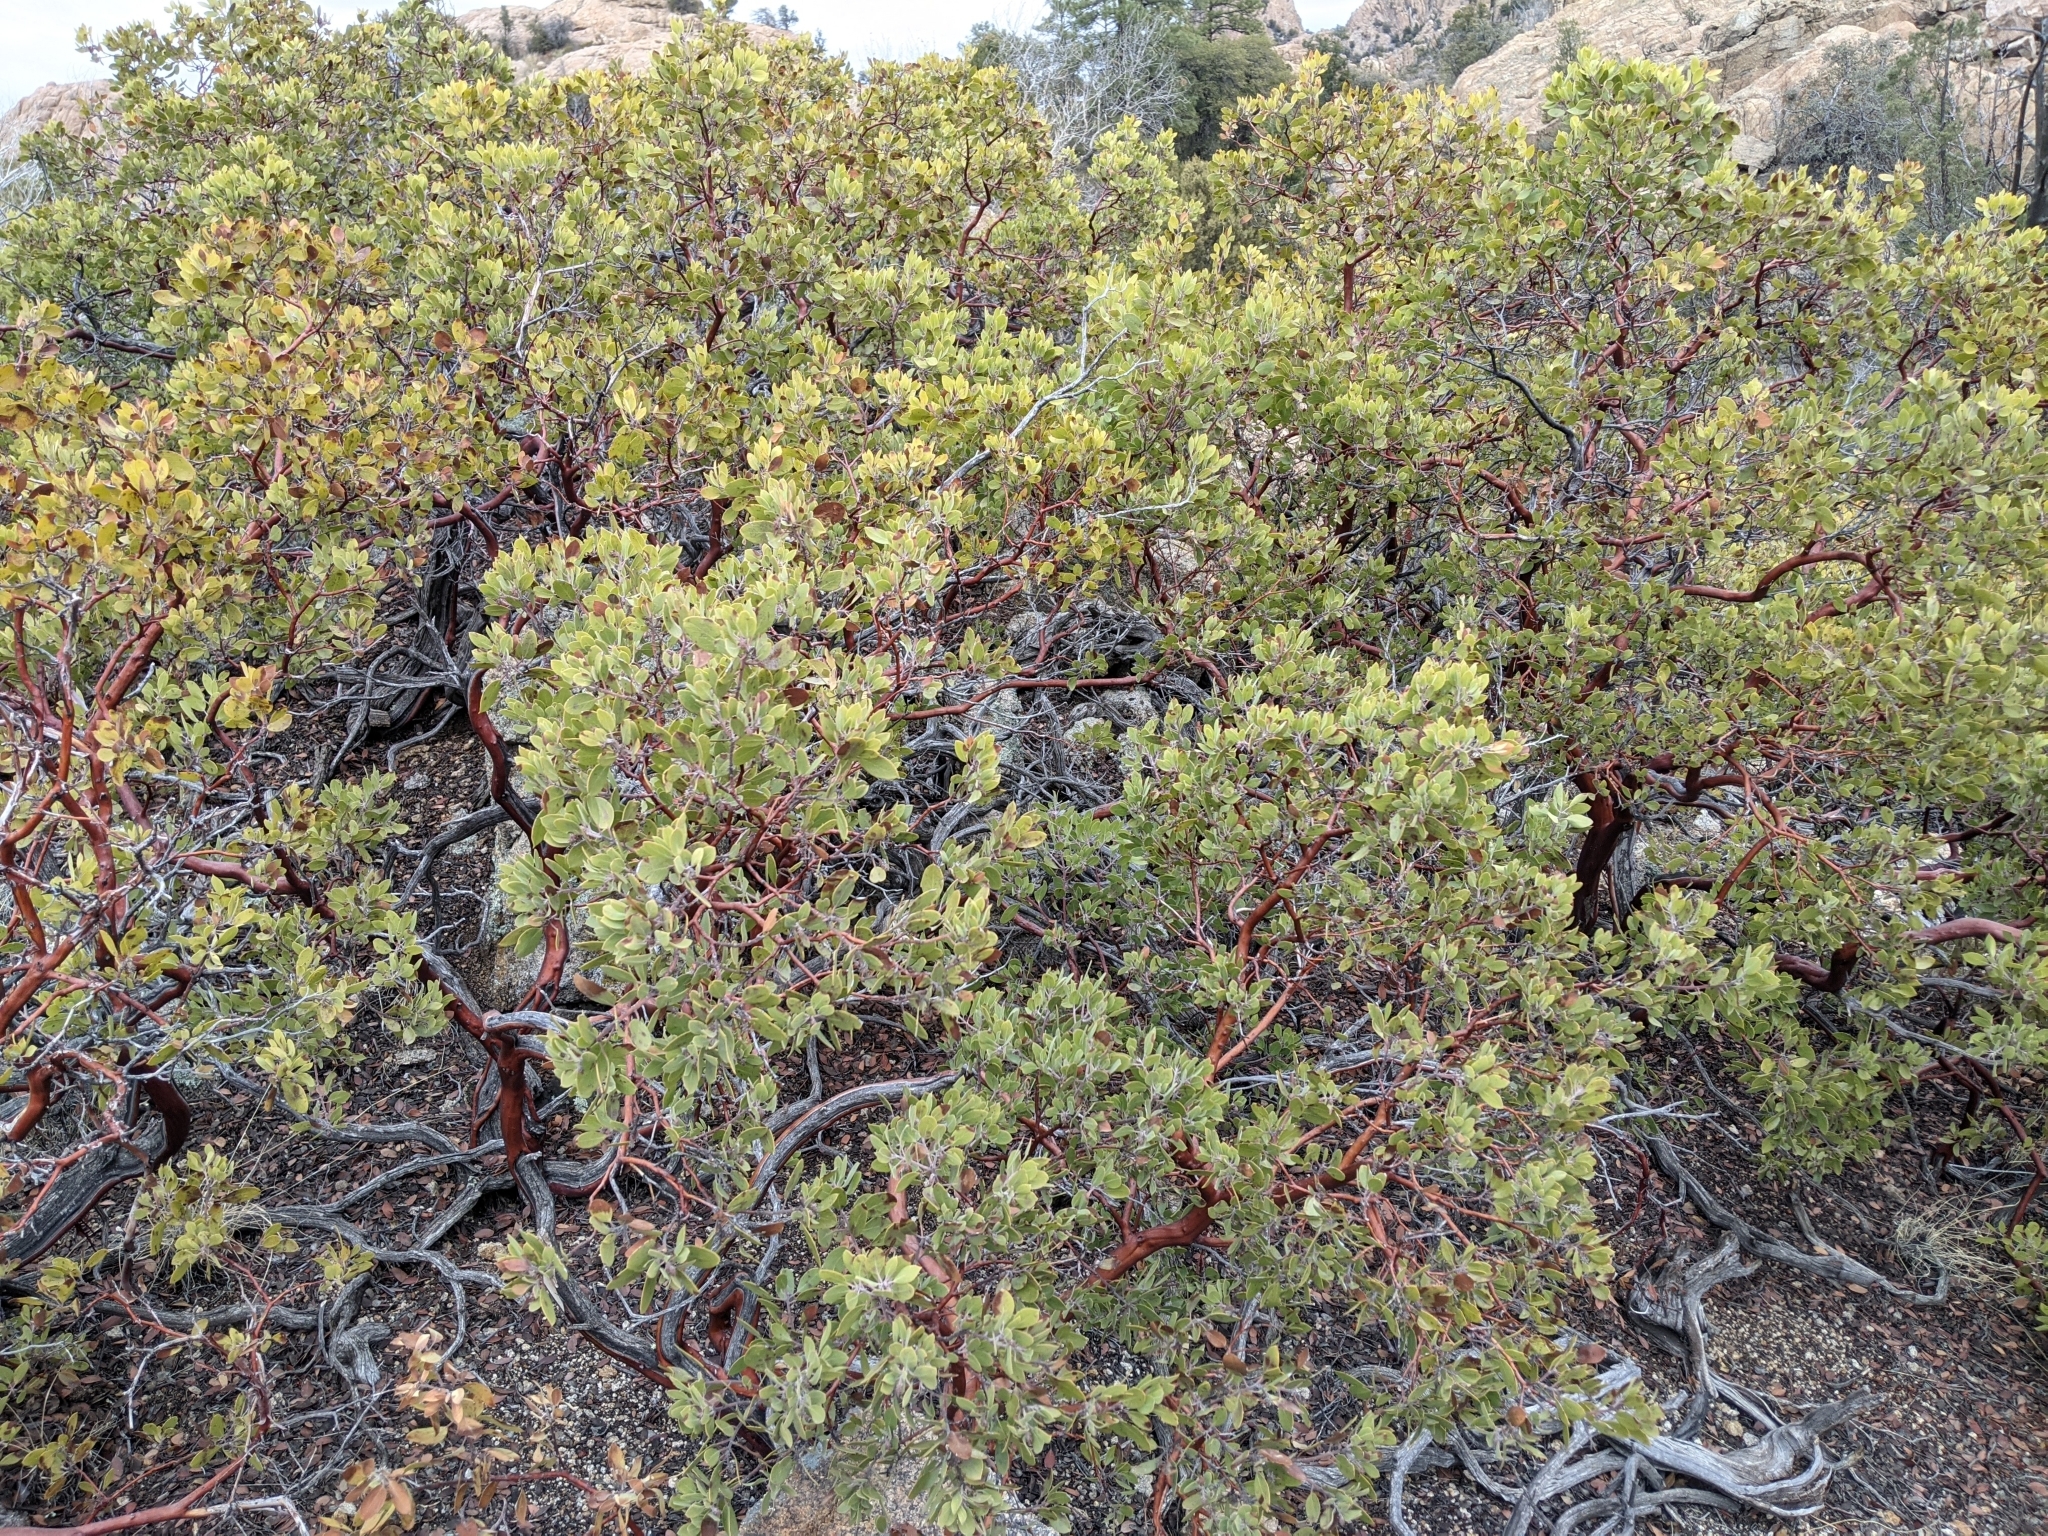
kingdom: Plantae
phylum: Tracheophyta
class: Magnoliopsida
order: Ericales
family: Ericaceae
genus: Arctostaphylos
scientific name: Arctostaphylos pungens
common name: Mexican manzanita
